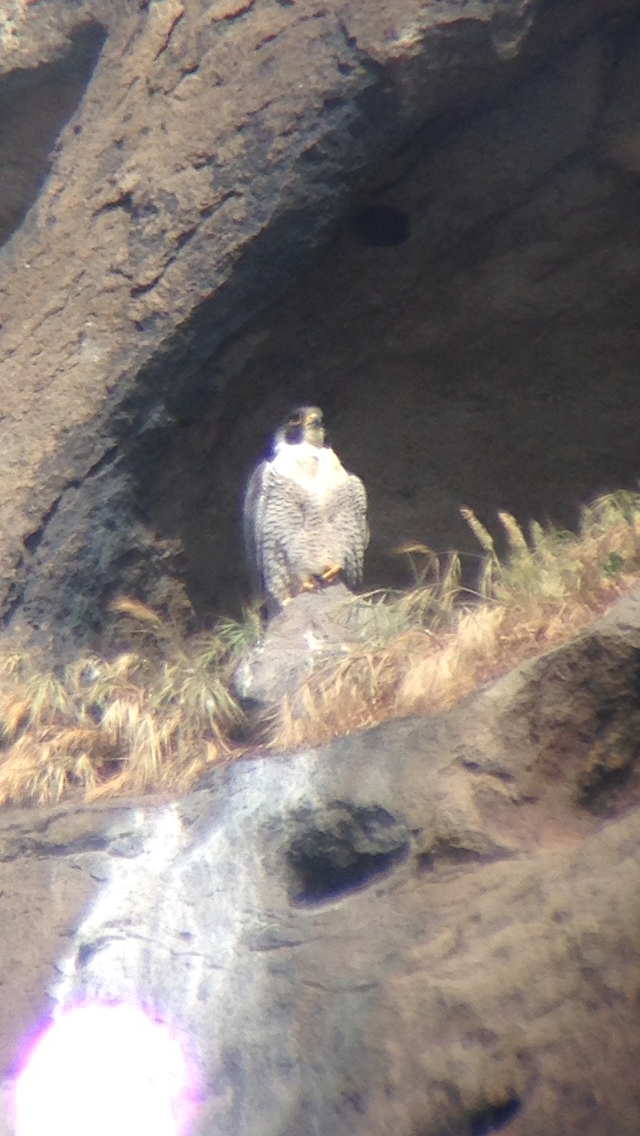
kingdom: Animalia
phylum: Chordata
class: Aves
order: Falconiformes
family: Falconidae
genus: Falco
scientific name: Falco peregrinus
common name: Peregrine falcon
